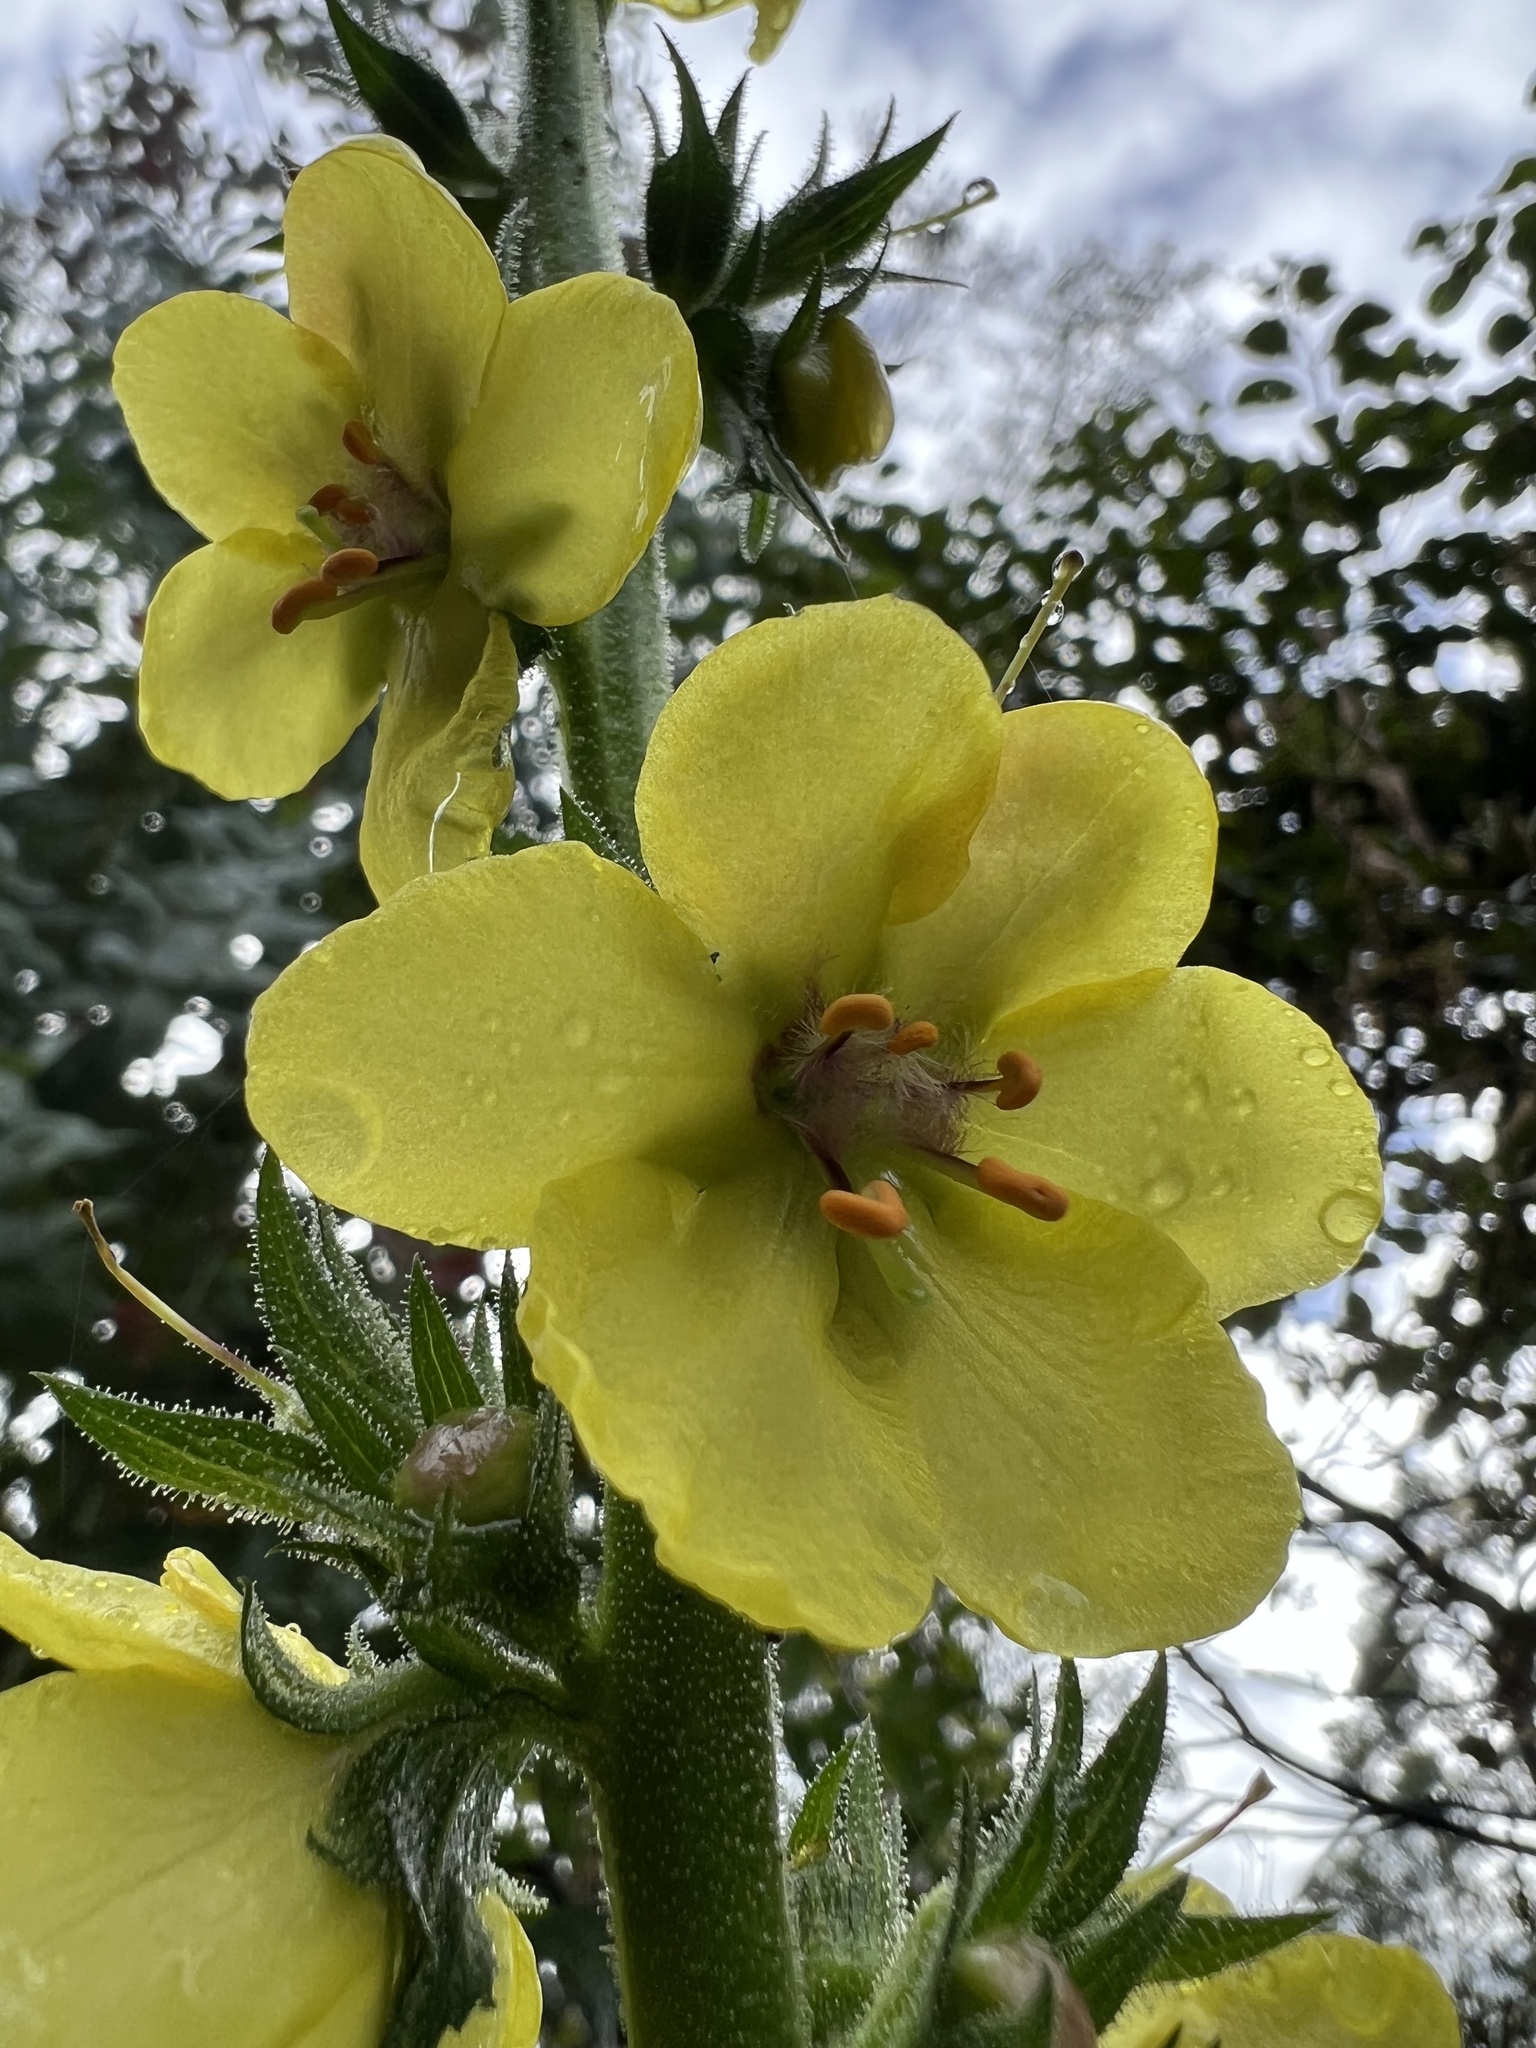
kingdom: Plantae
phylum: Tracheophyta
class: Magnoliopsida
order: Lamiales
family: Scrophulariaceae
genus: Verbascum
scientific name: Verbascum virgatum
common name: Twiggy mullein
